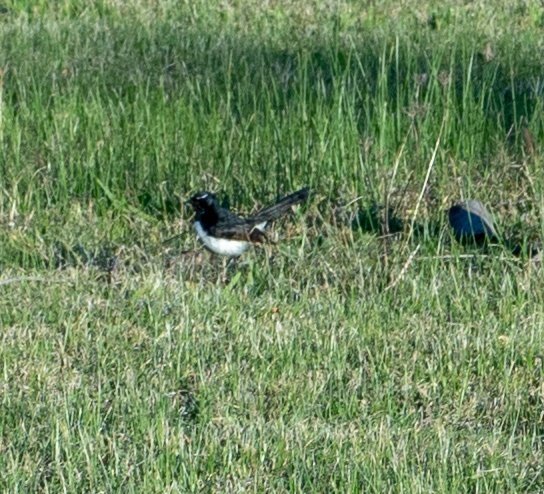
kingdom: Animalia
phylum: Chordata
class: Aves
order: Passeriformes
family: Rhipiduridae
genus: Rhipidura
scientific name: Rhipidura leucophrys
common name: Willie wagtail
